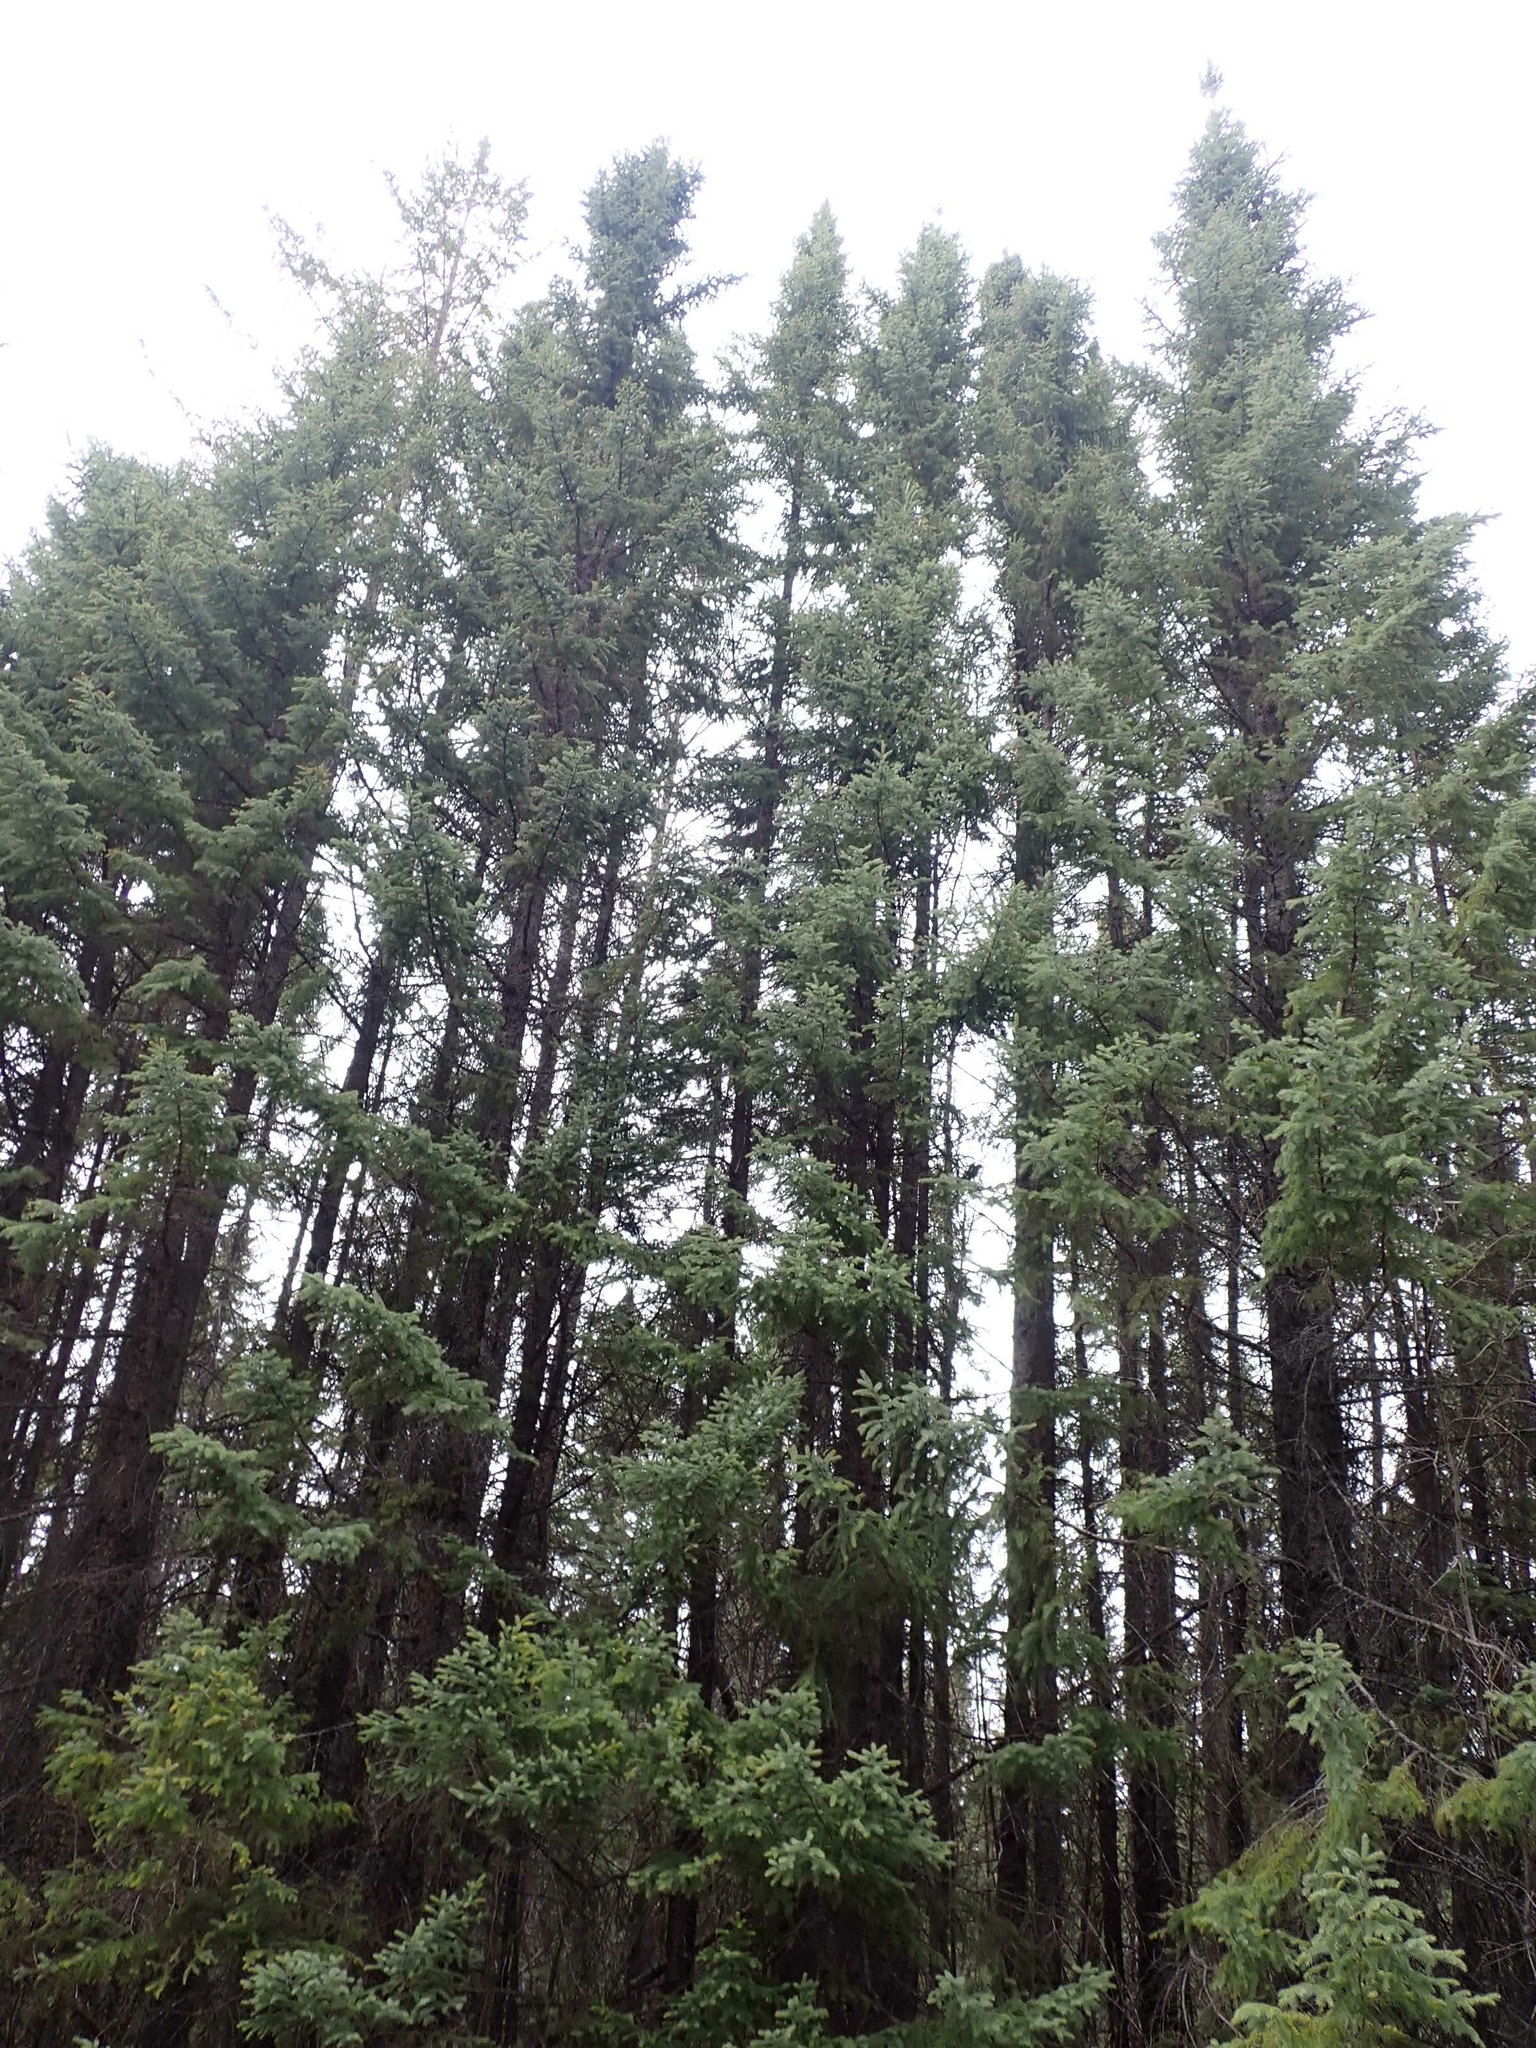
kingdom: Plantae
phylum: Tracheophyta
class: Pinopsida
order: Pinales
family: Pinaceae
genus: Picea
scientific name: Picea mariana
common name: Black spruce
